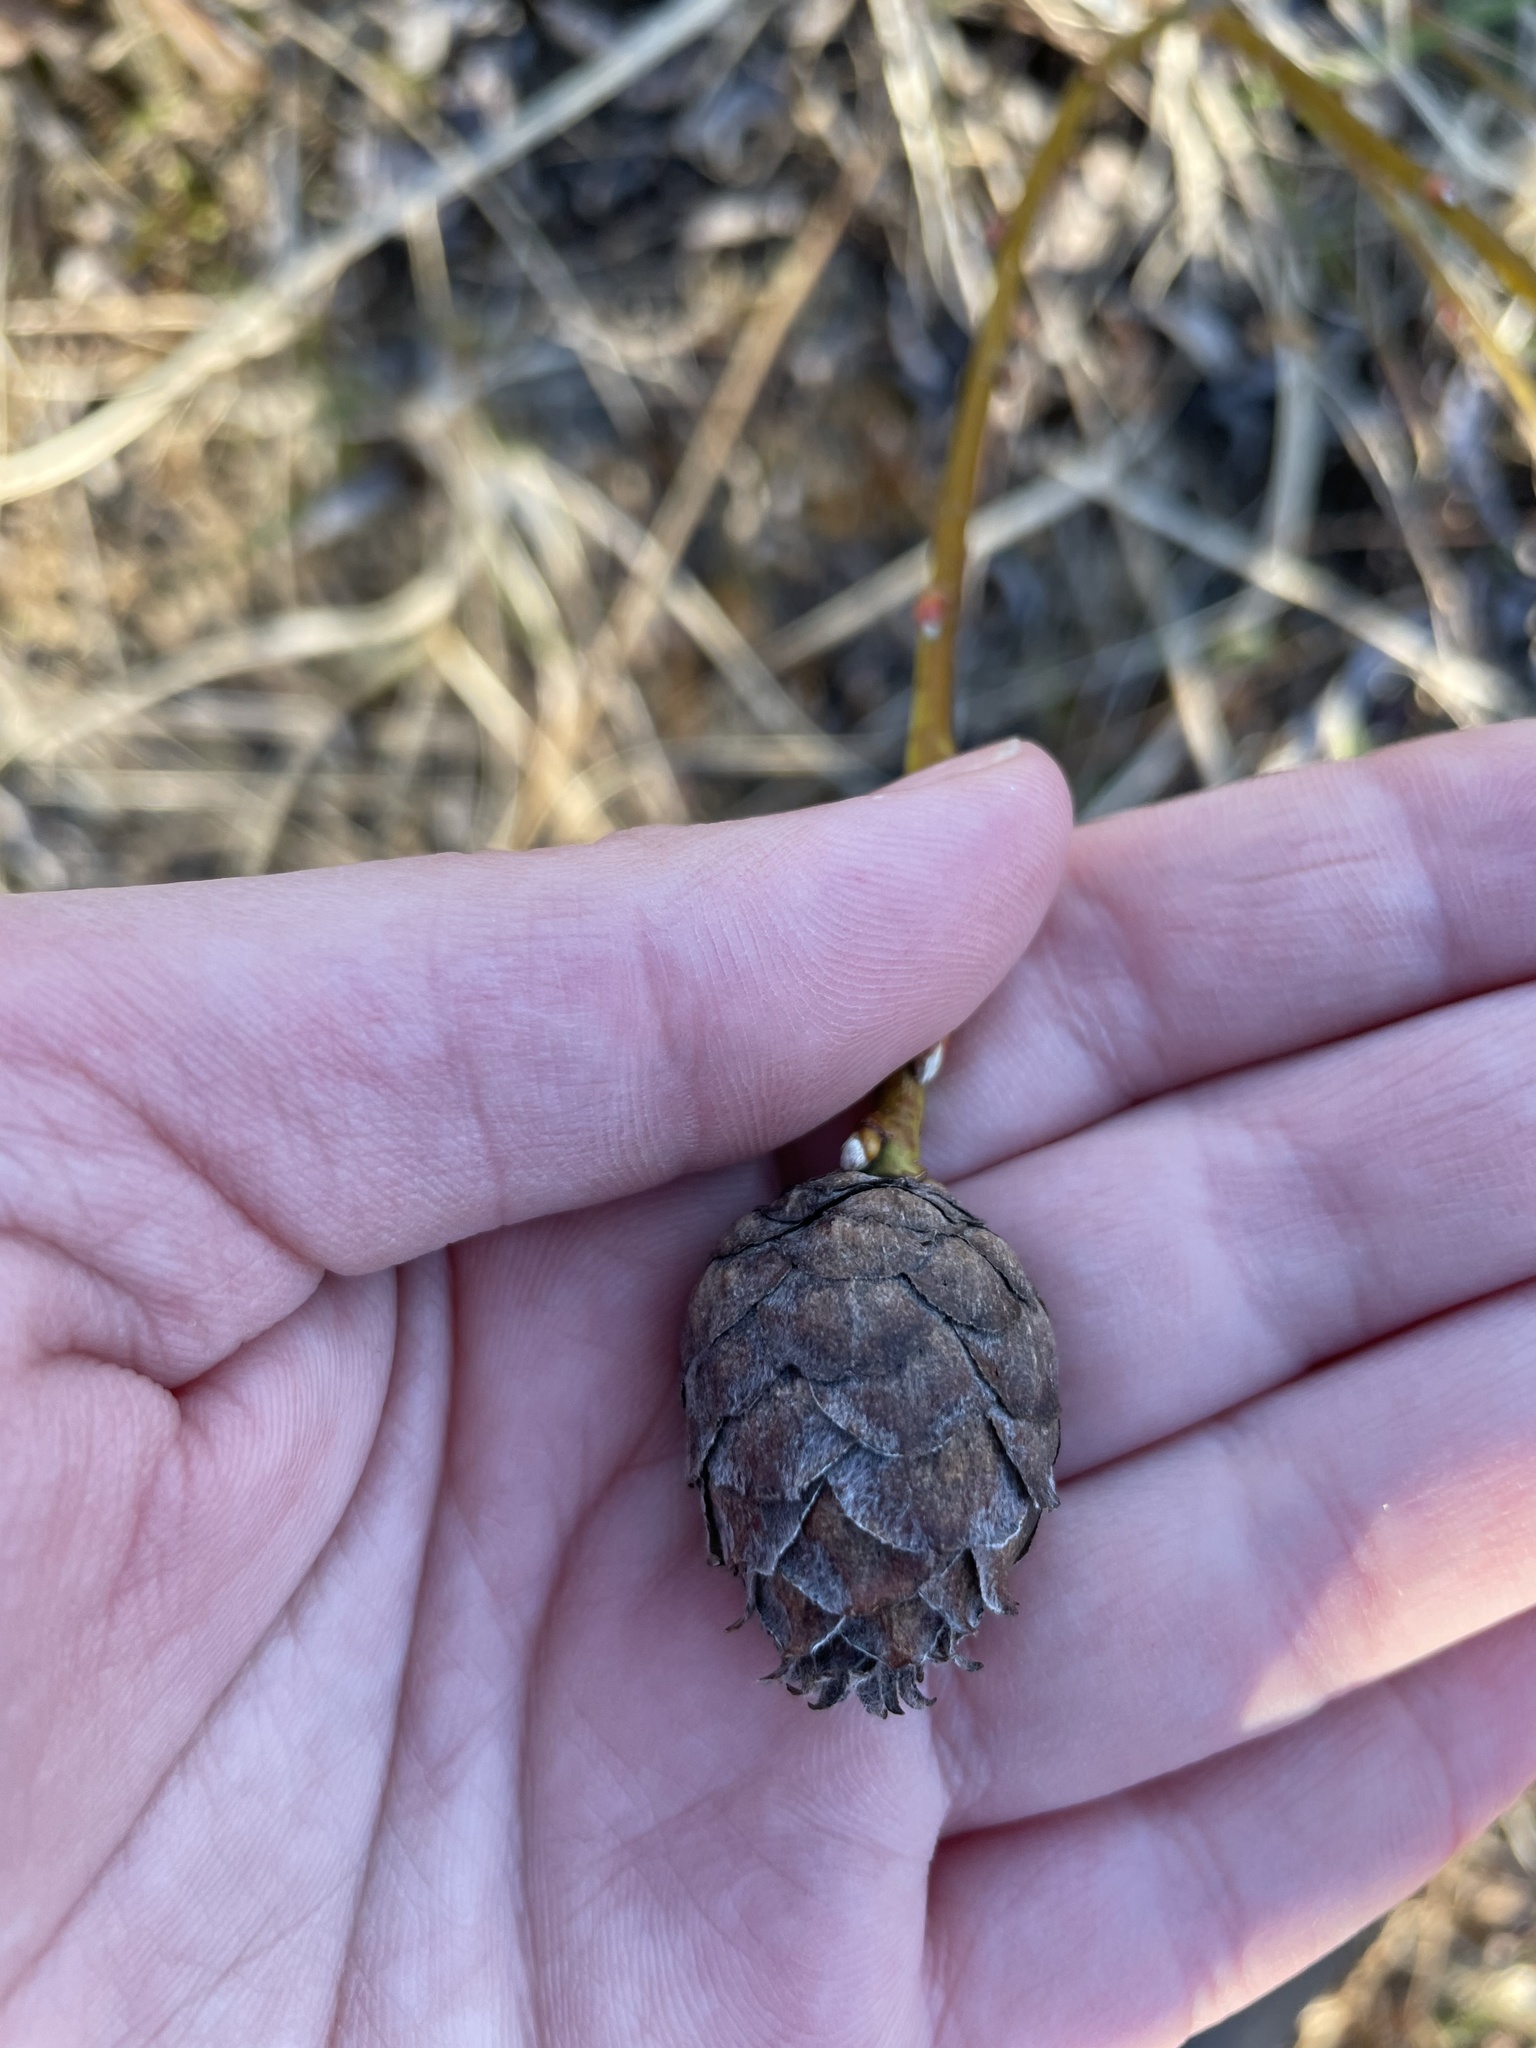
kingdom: Animalia
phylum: Arthropoda
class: Insecta
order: Diptera
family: Cecidomyiidae
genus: Rabdophaga
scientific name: Rabdophaga strobiloides
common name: Willow pinecone gall midge
